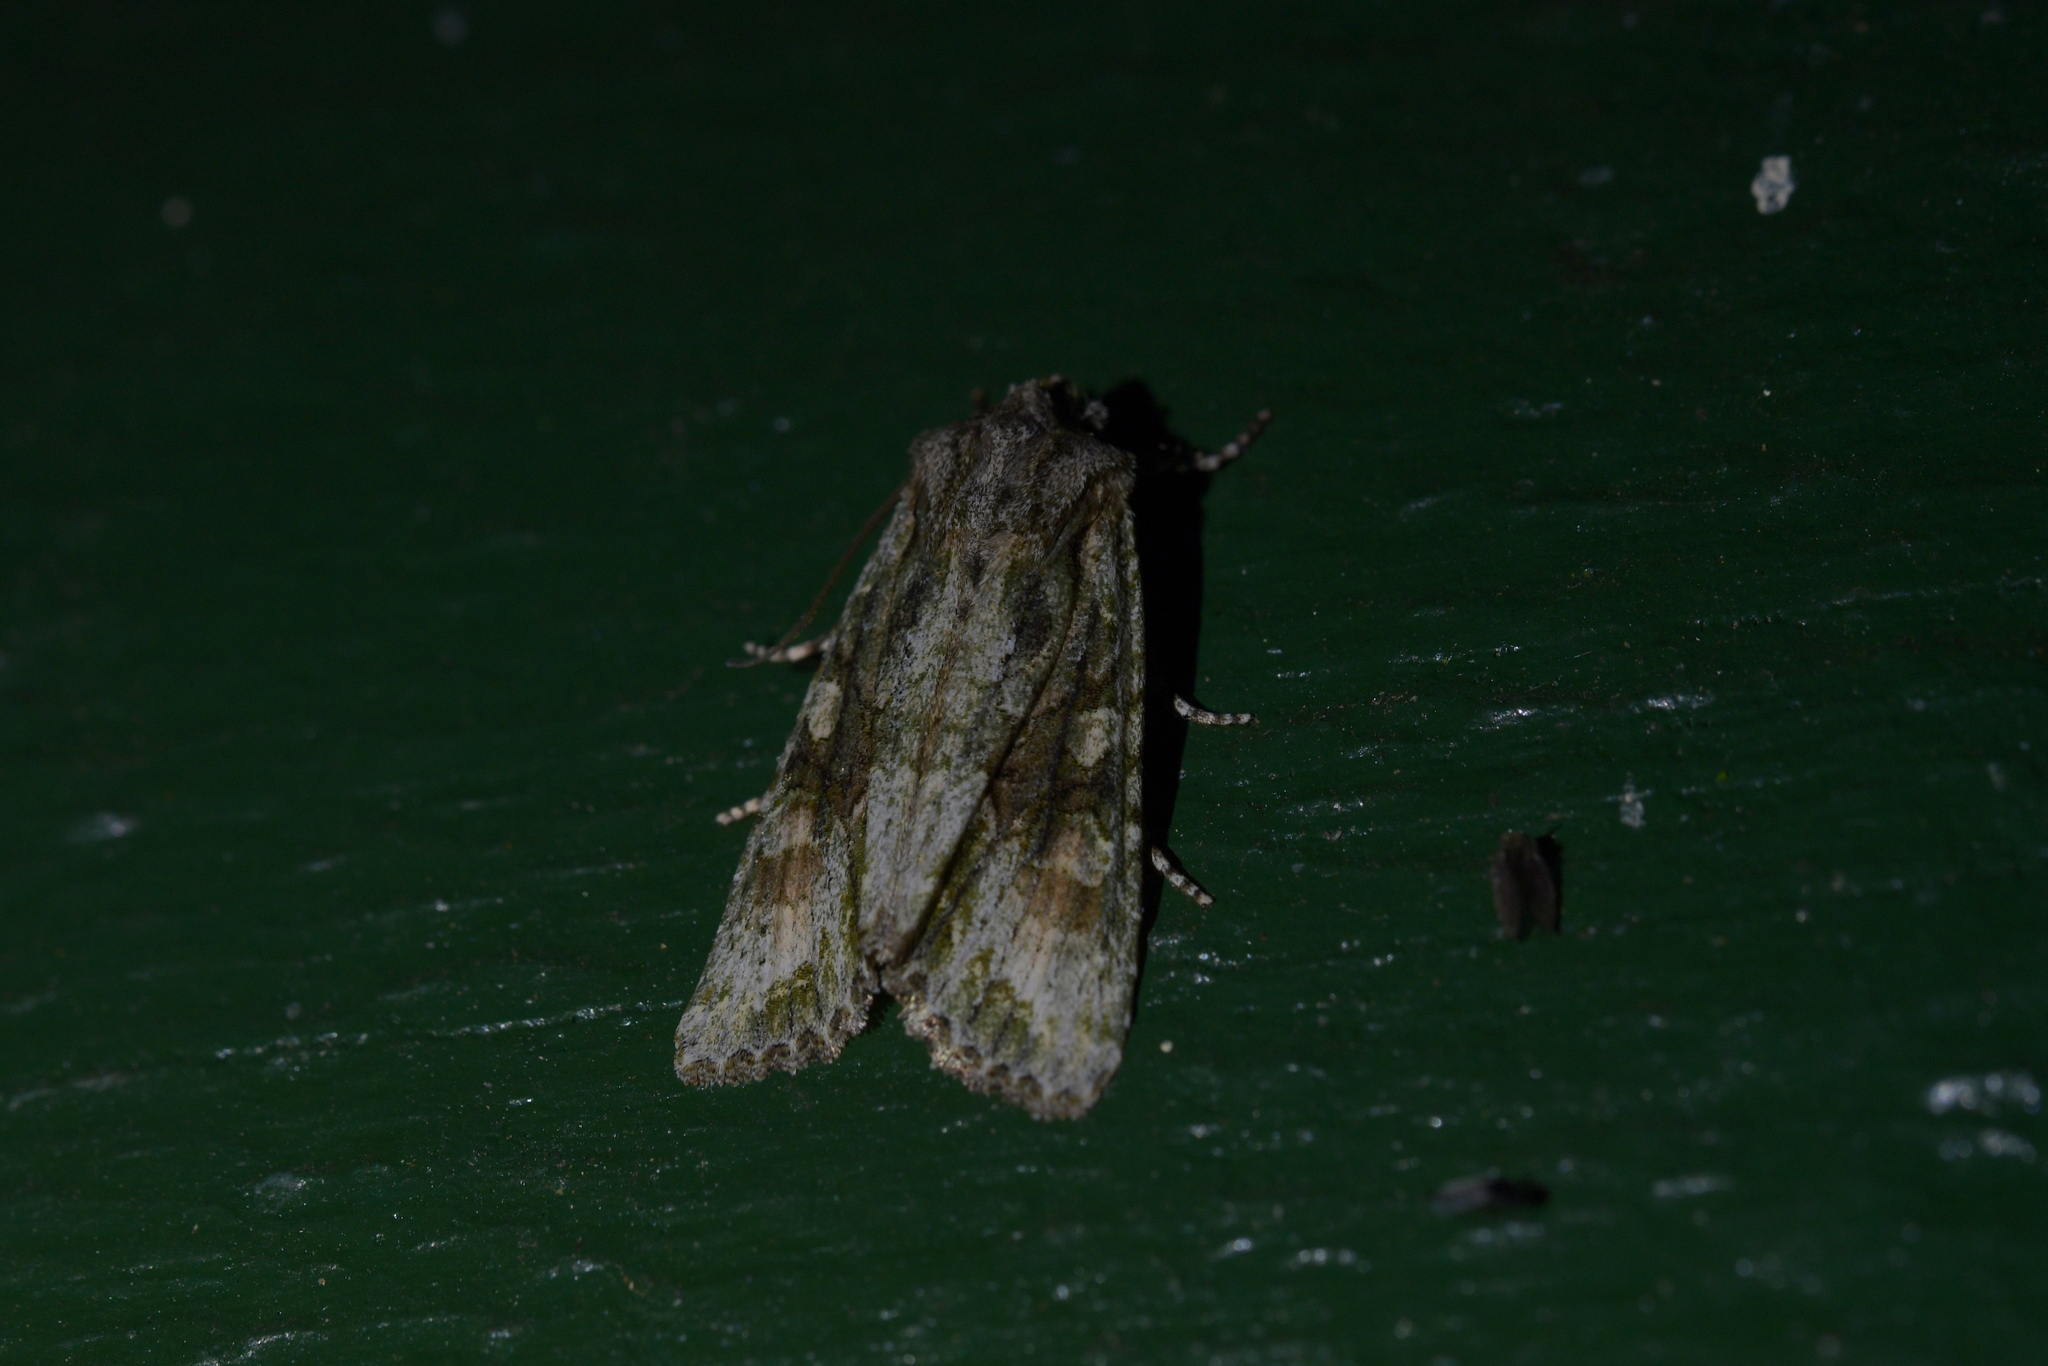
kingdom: Animalia
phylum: Arthropoda
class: Insecta
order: Lepidoptera
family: Noctuidae
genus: Ichneutica
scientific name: Ichneutica mutans
